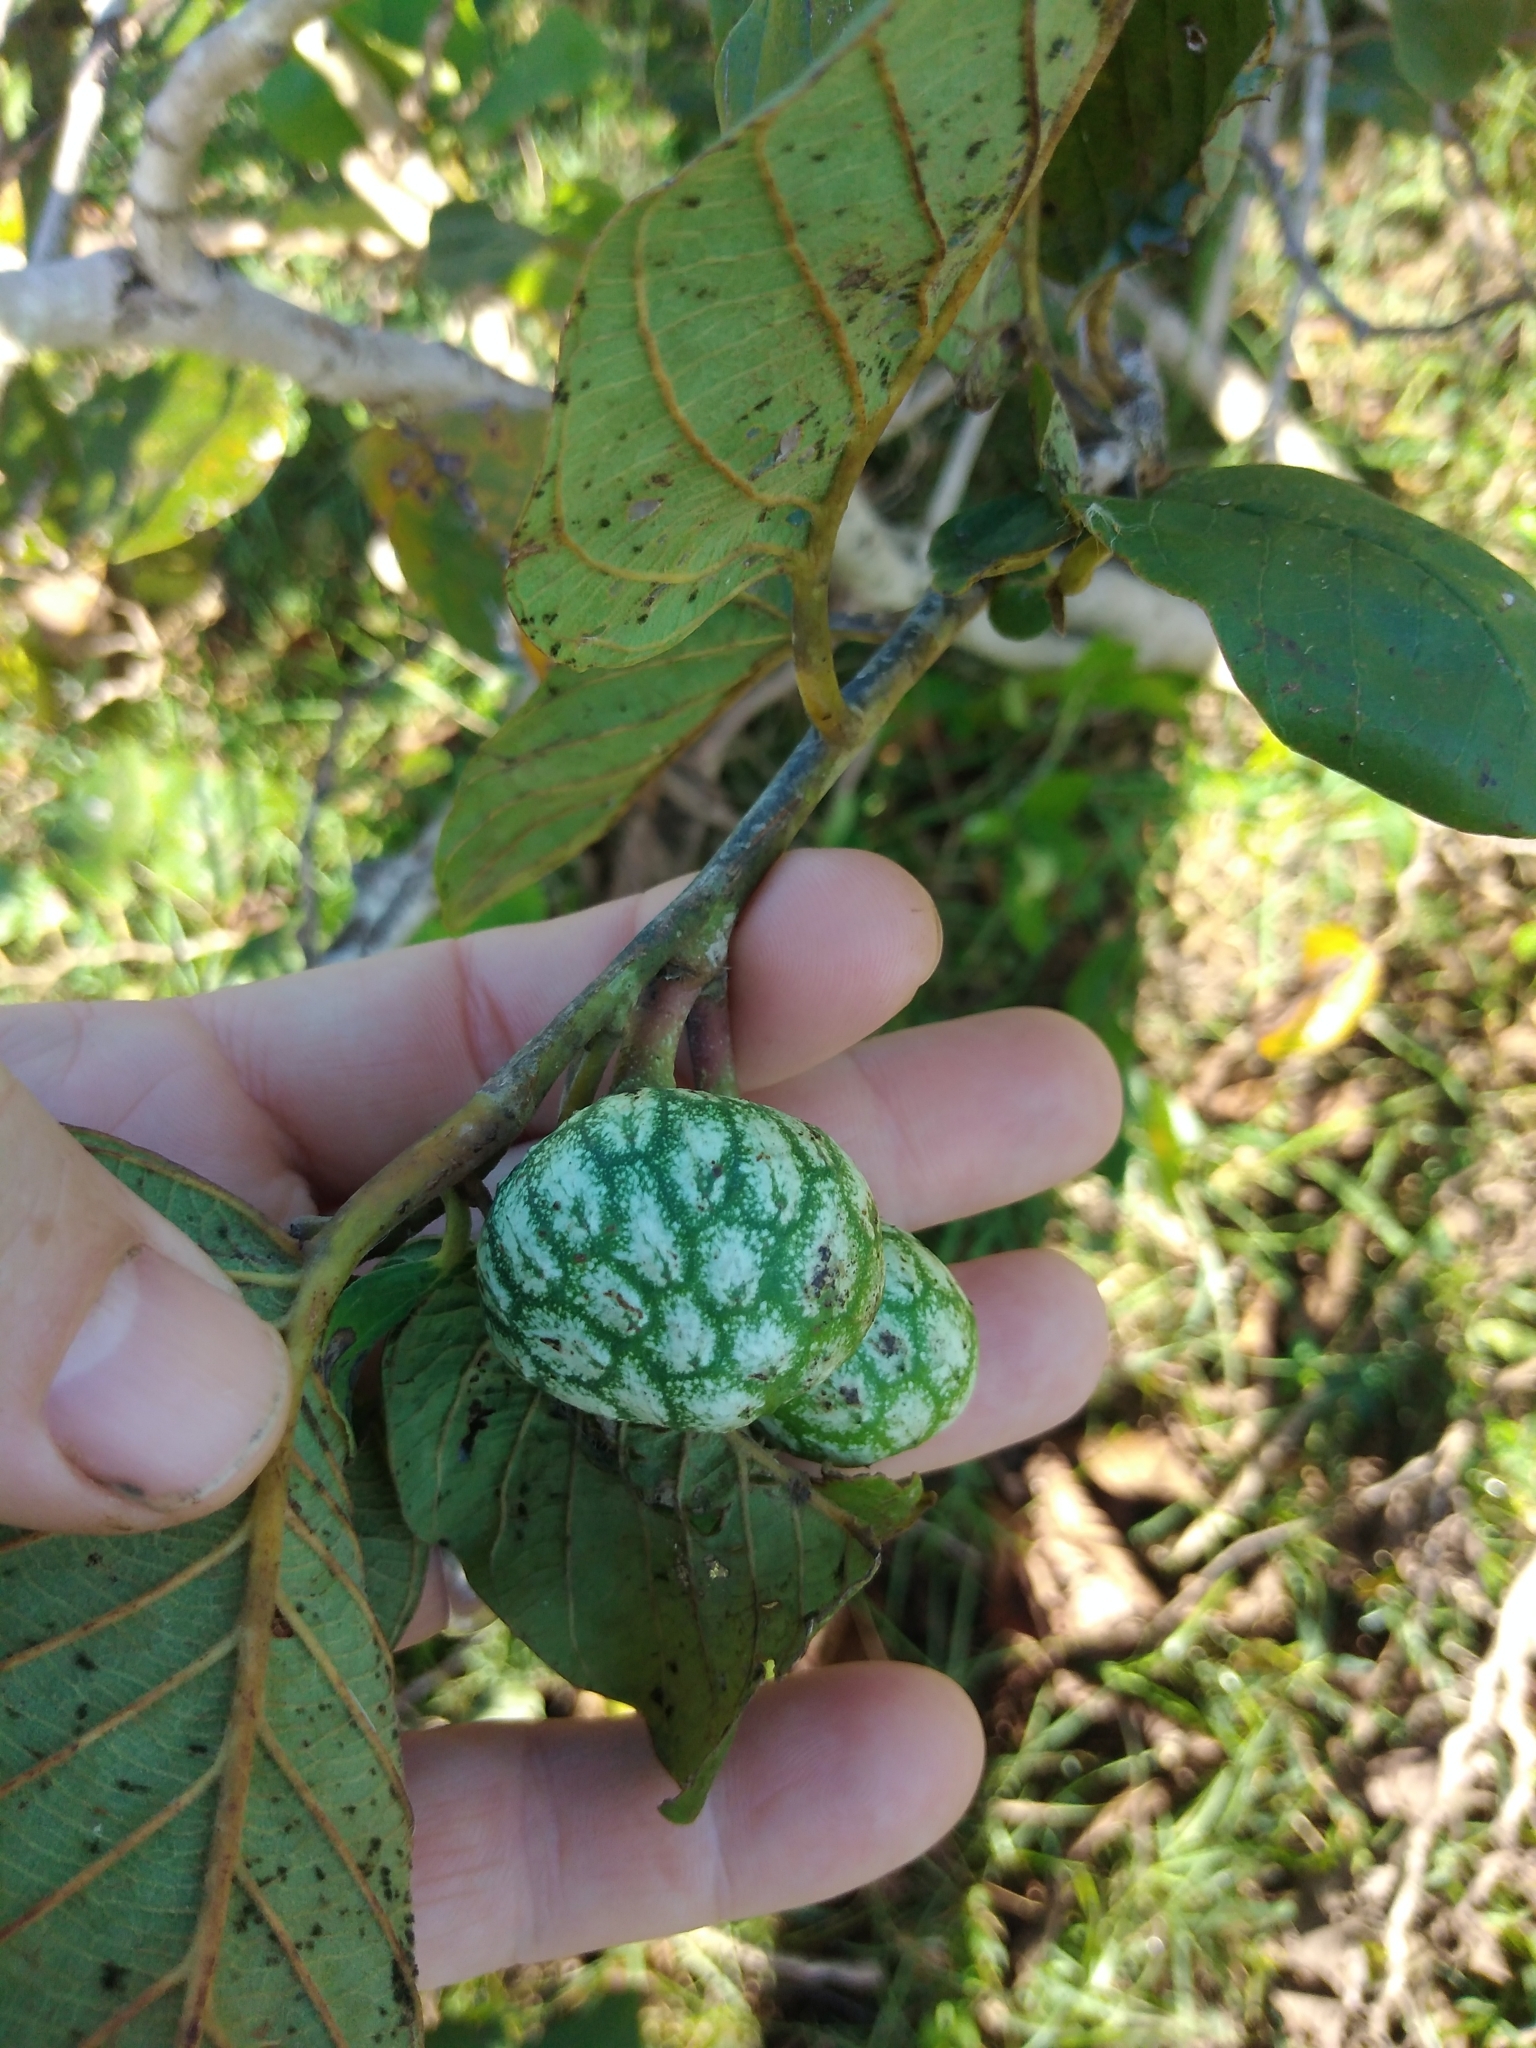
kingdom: Plantae
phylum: Tracheophyta
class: Magnoliopsida
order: Magnoliales
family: Annonaceae
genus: Annona
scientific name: Annona senegalensis
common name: Wild custard-apple
